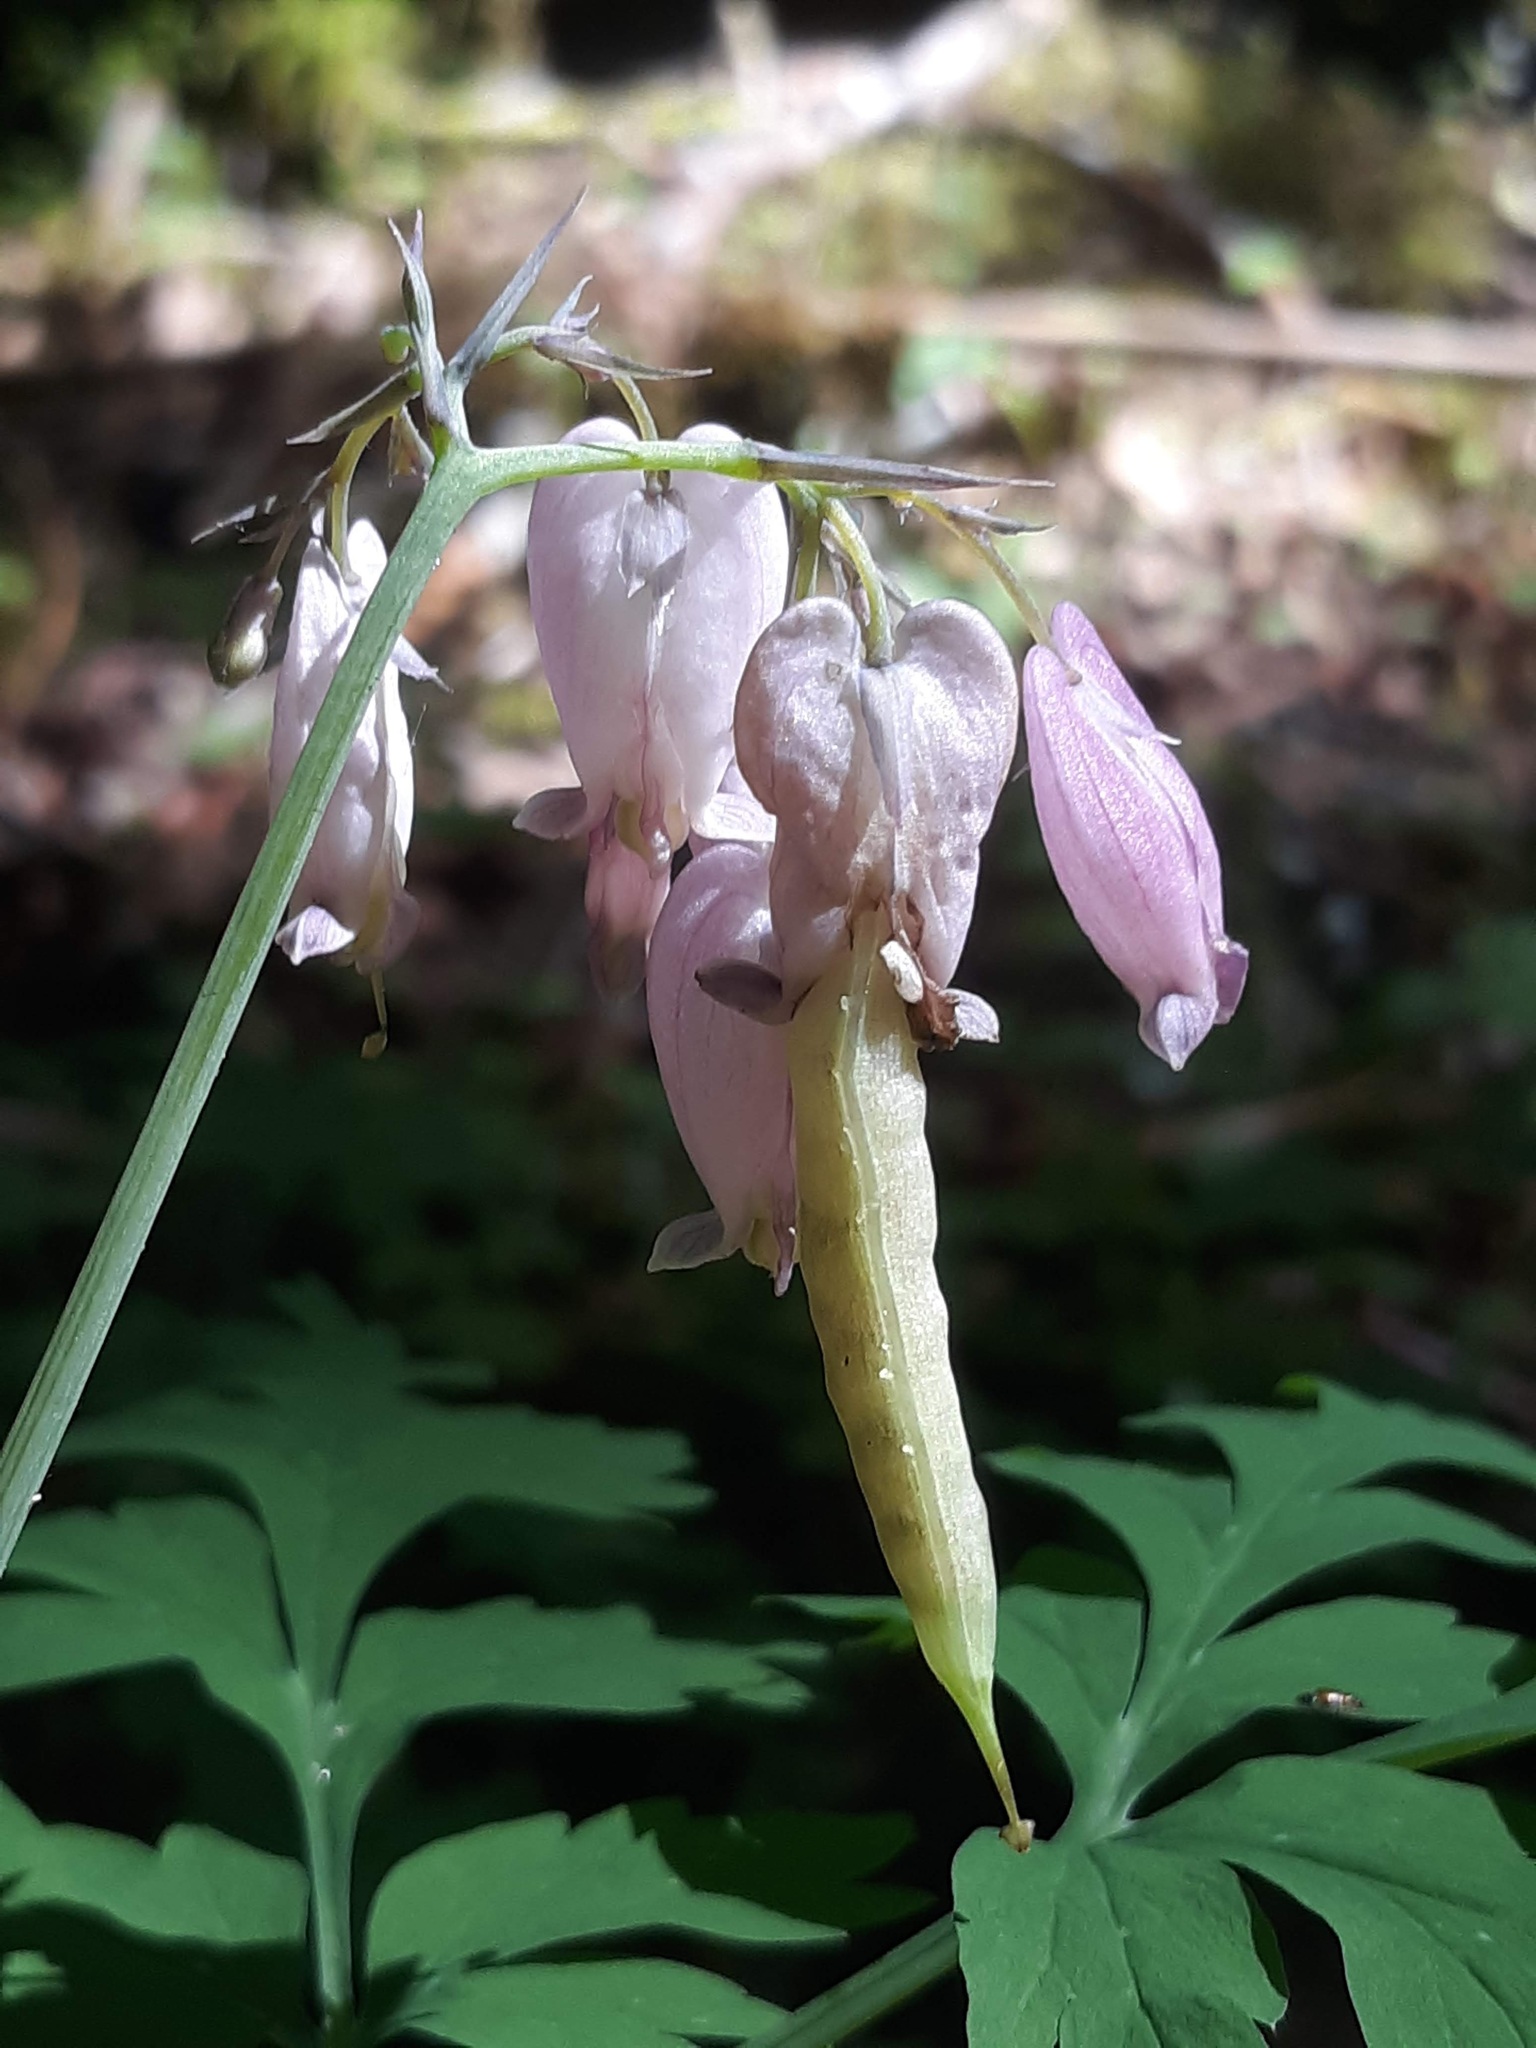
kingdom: Plantae
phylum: Tracheophyta
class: Magnoliopsida
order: Ranunculales
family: Papaveraceae
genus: Dicentra
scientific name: Dicentra formosa
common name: Bleeding-heart
